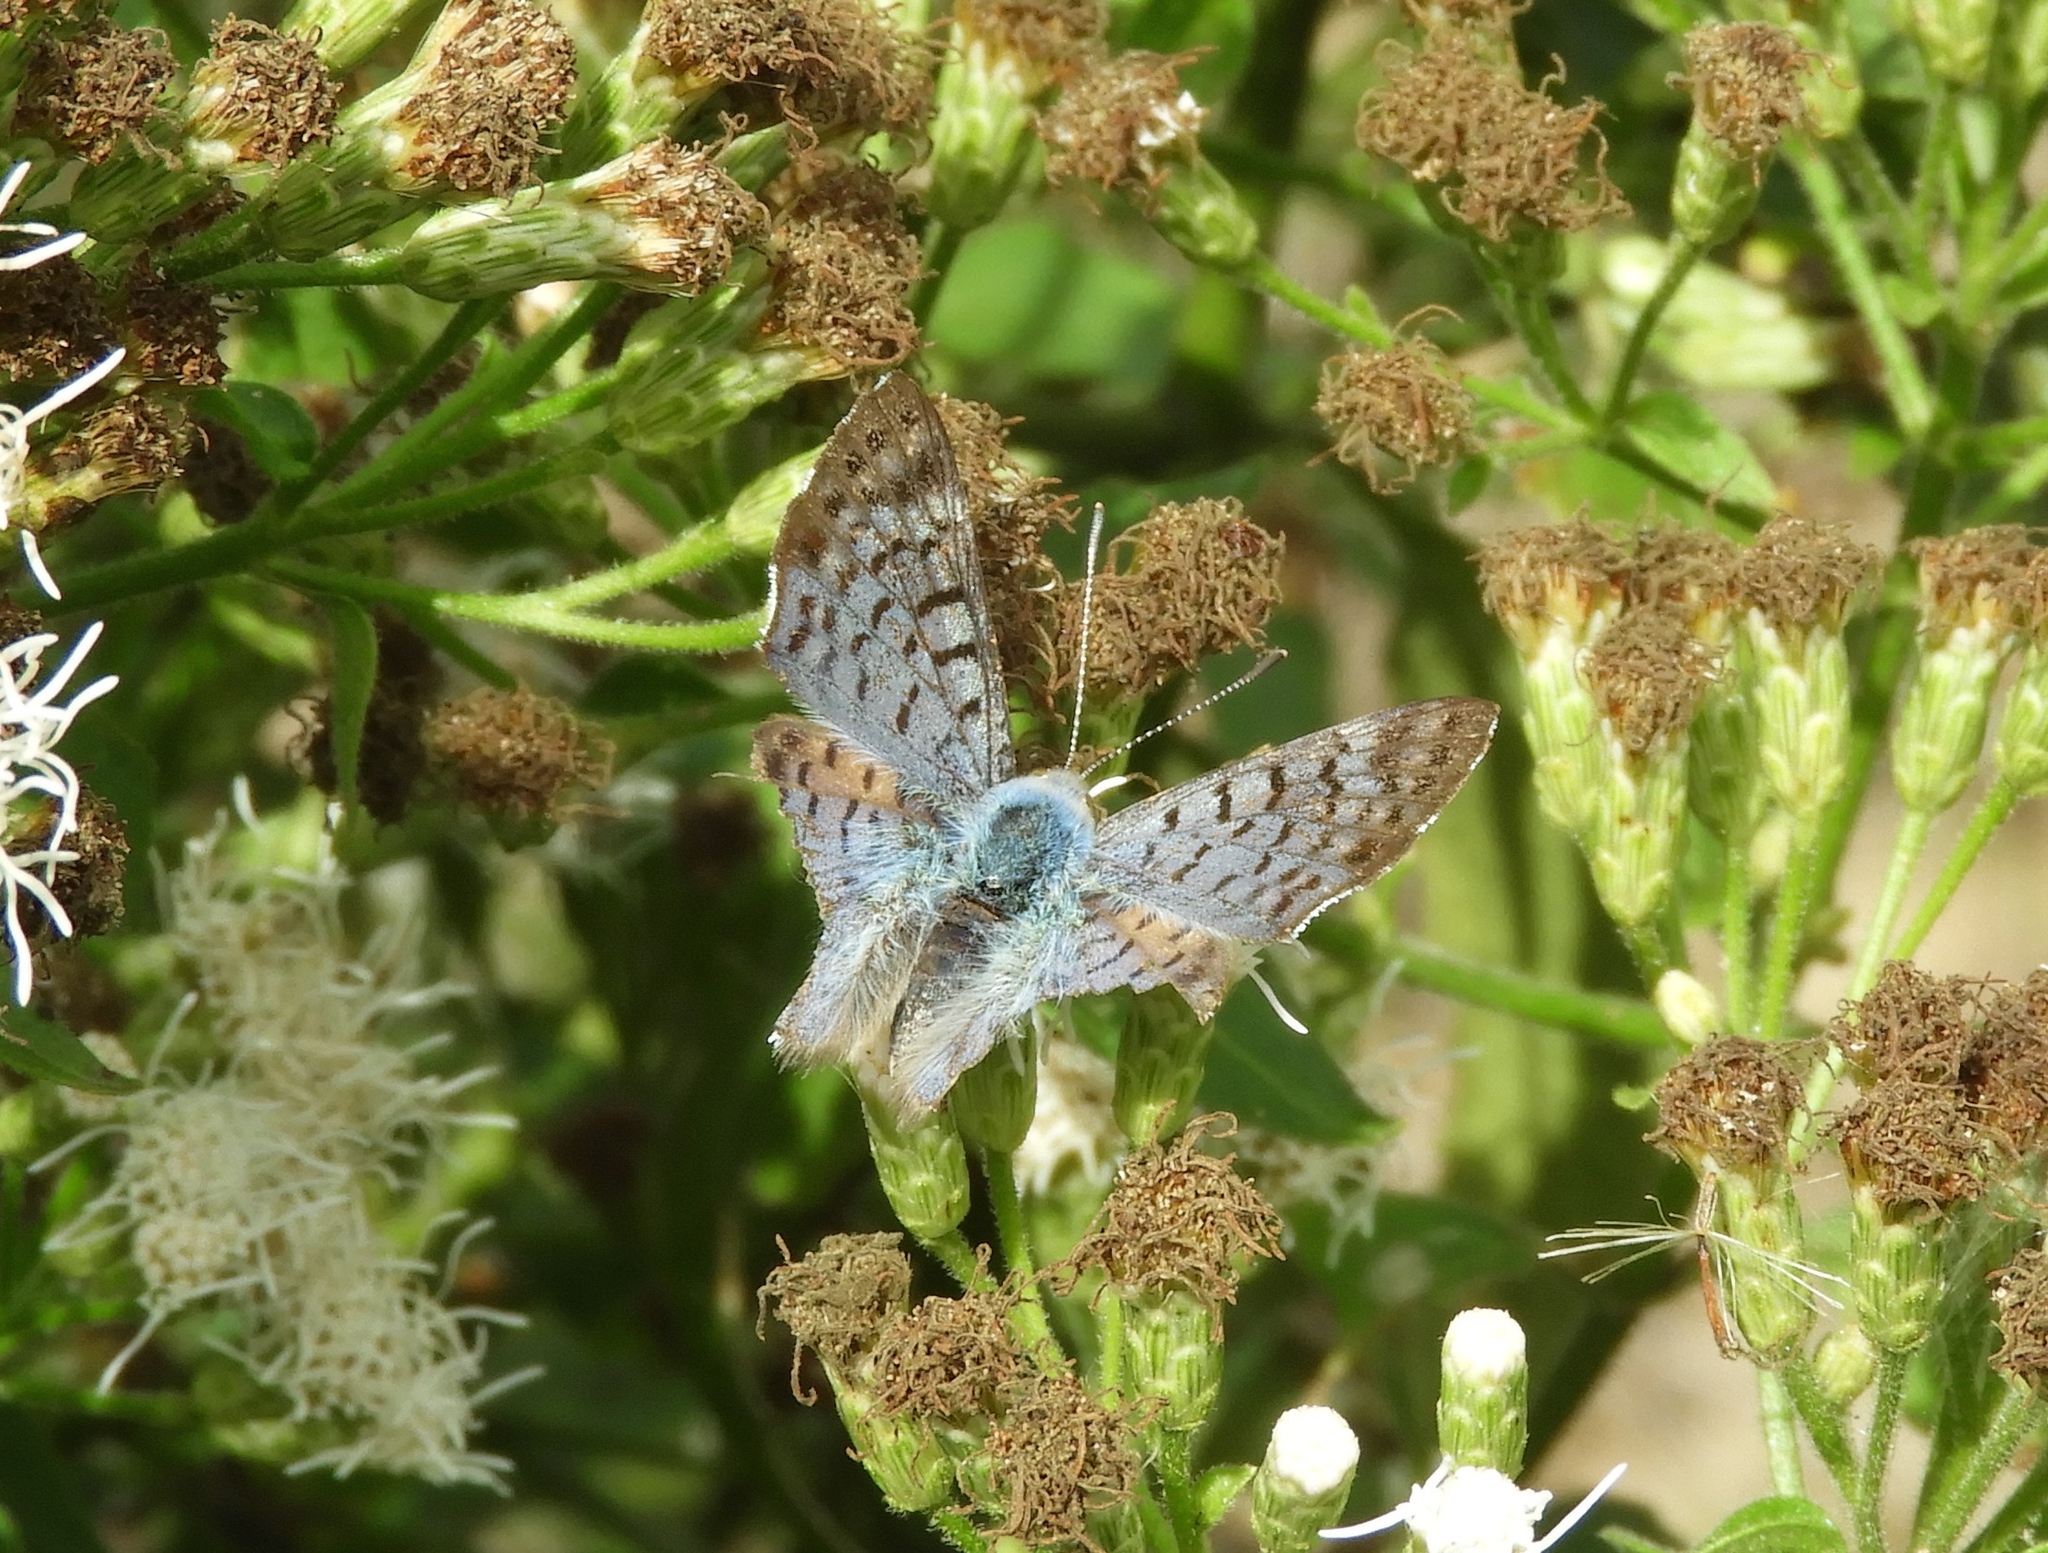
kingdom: Animalia
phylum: Arthropoda
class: Insecta
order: Lepidoptera
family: Riodinidae
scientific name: Riodinidae
